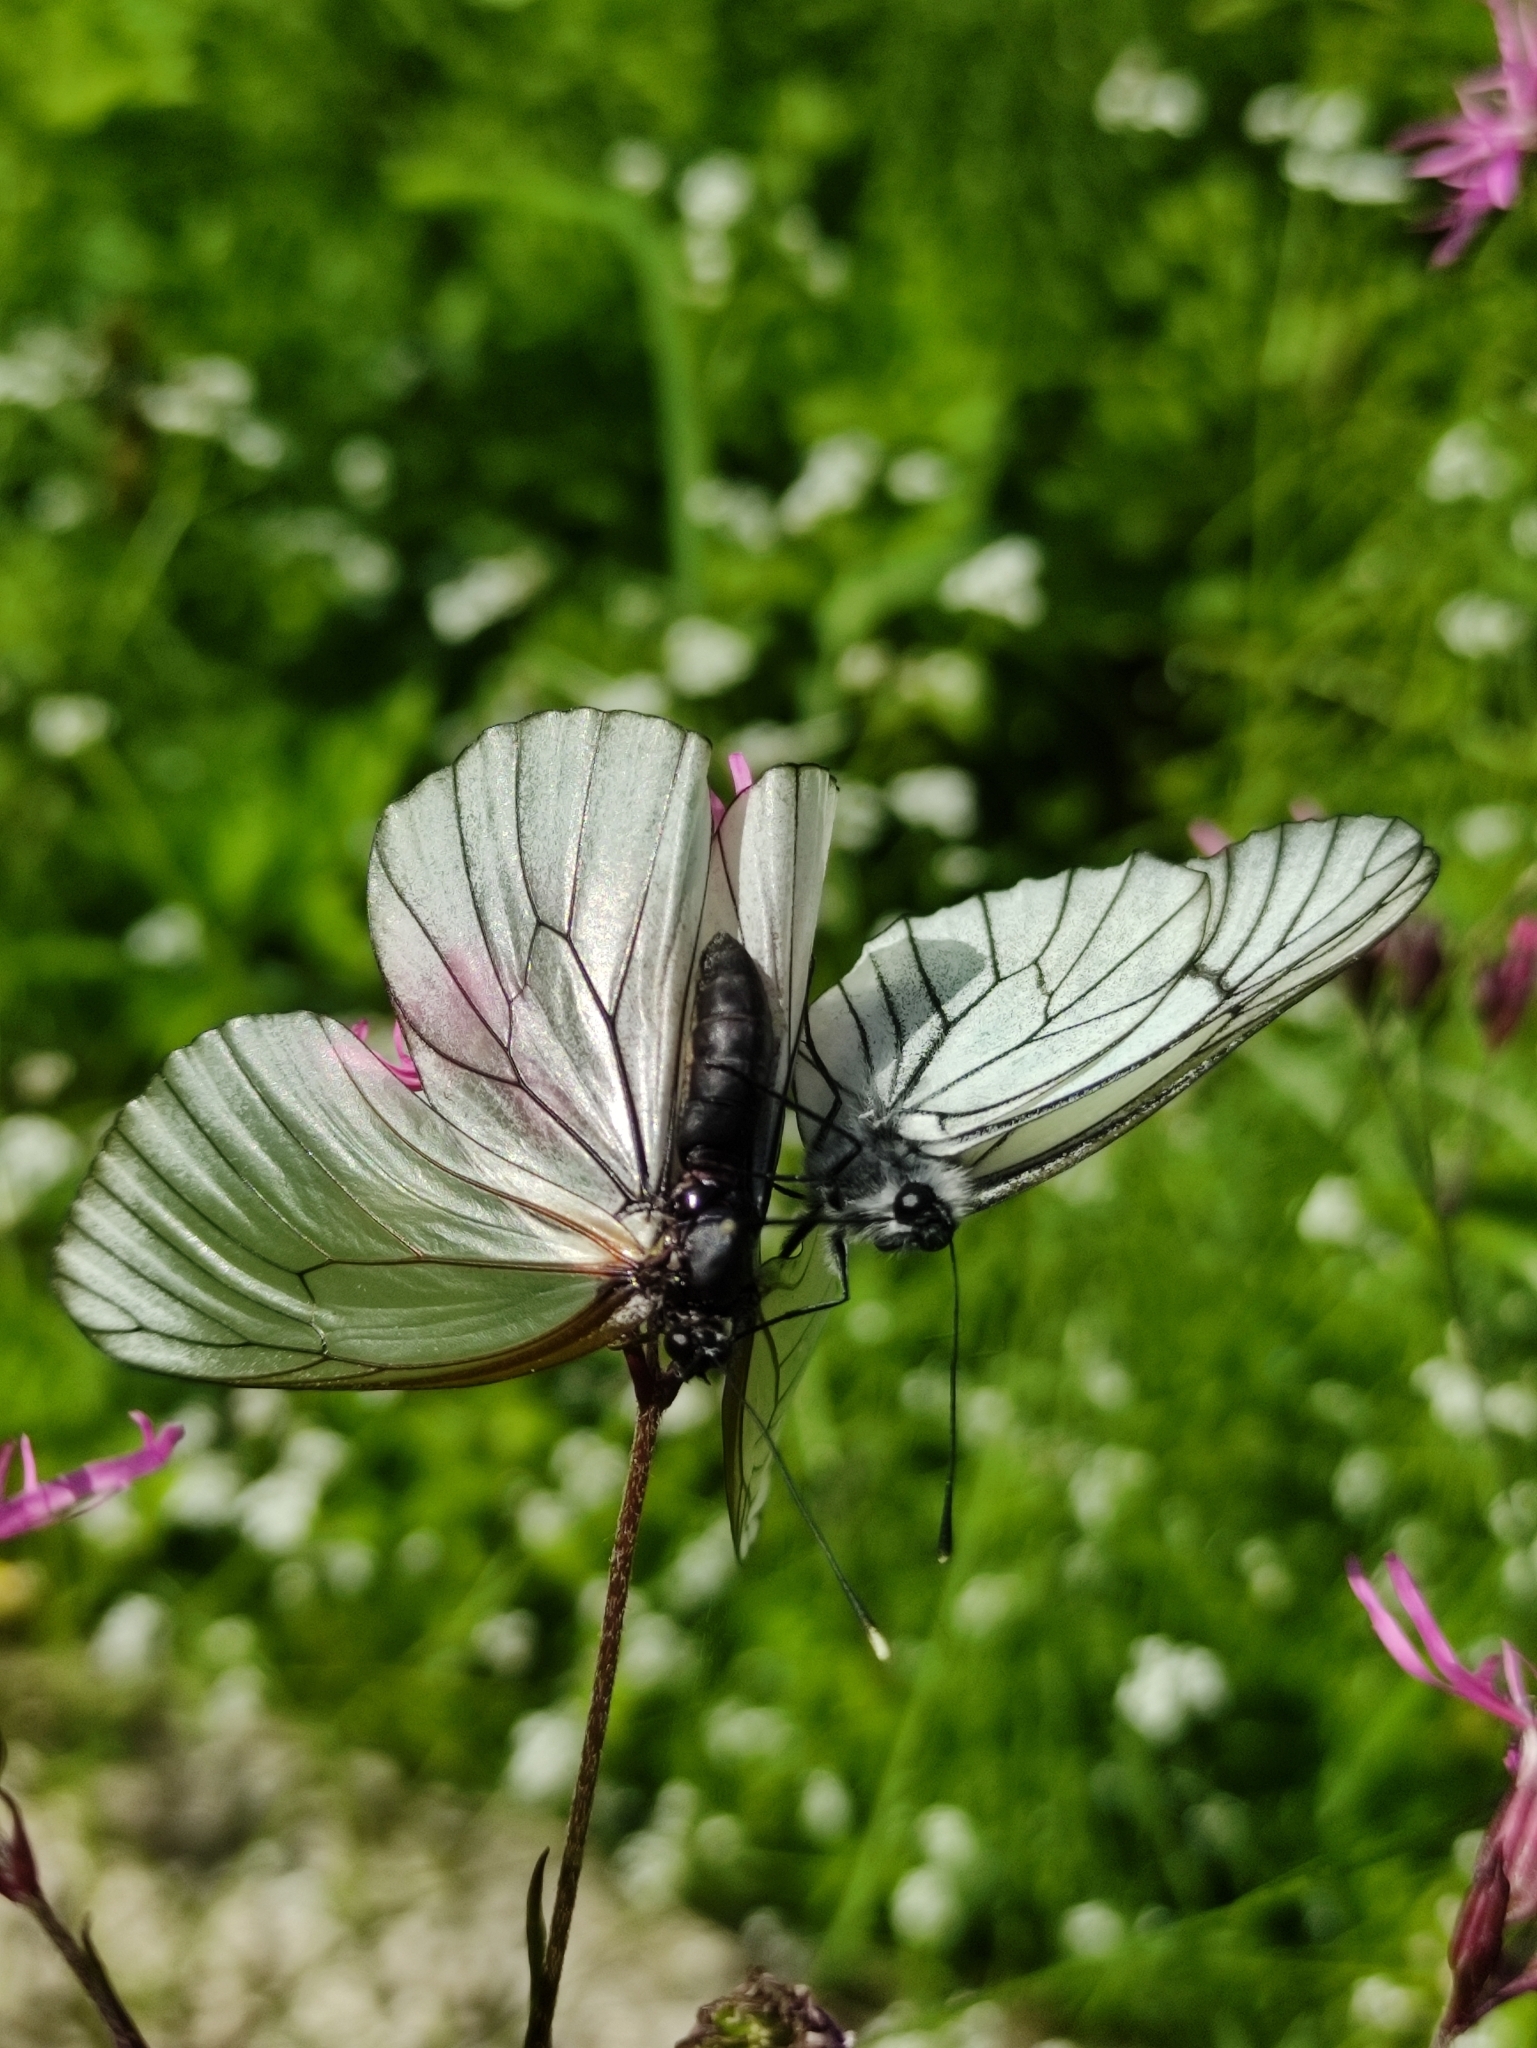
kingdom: Animalia
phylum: Arthropoda
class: Insecta
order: Lepidoptera
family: Pieridae
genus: Aporia
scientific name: Aporia crataegi
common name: Black-veined white
